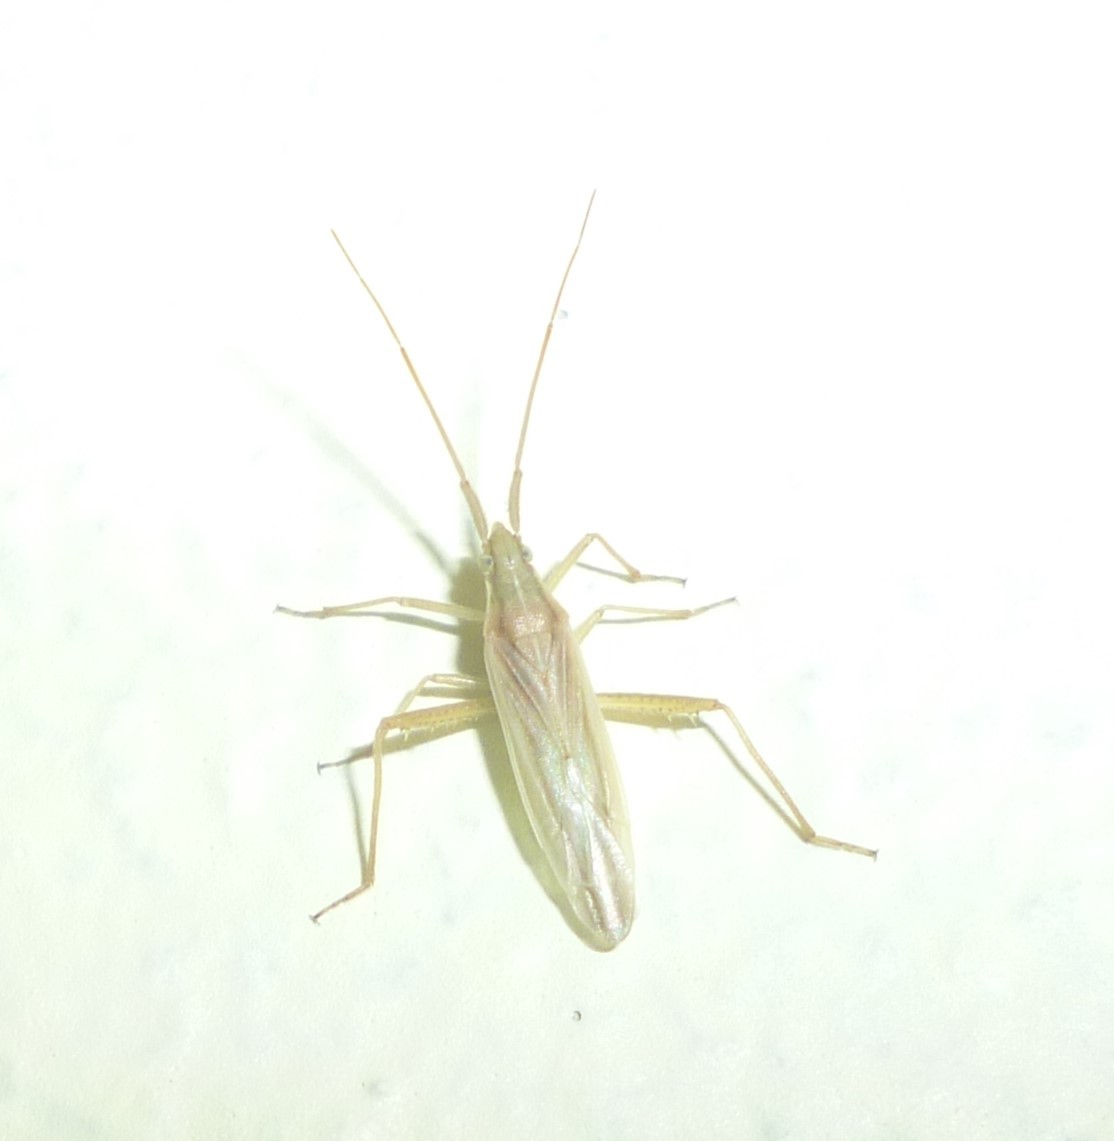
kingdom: Animalia
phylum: Arthropoda
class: Insecta
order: Hemiptera
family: Miridae
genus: Stenodema
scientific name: Stenodema trispinosa
